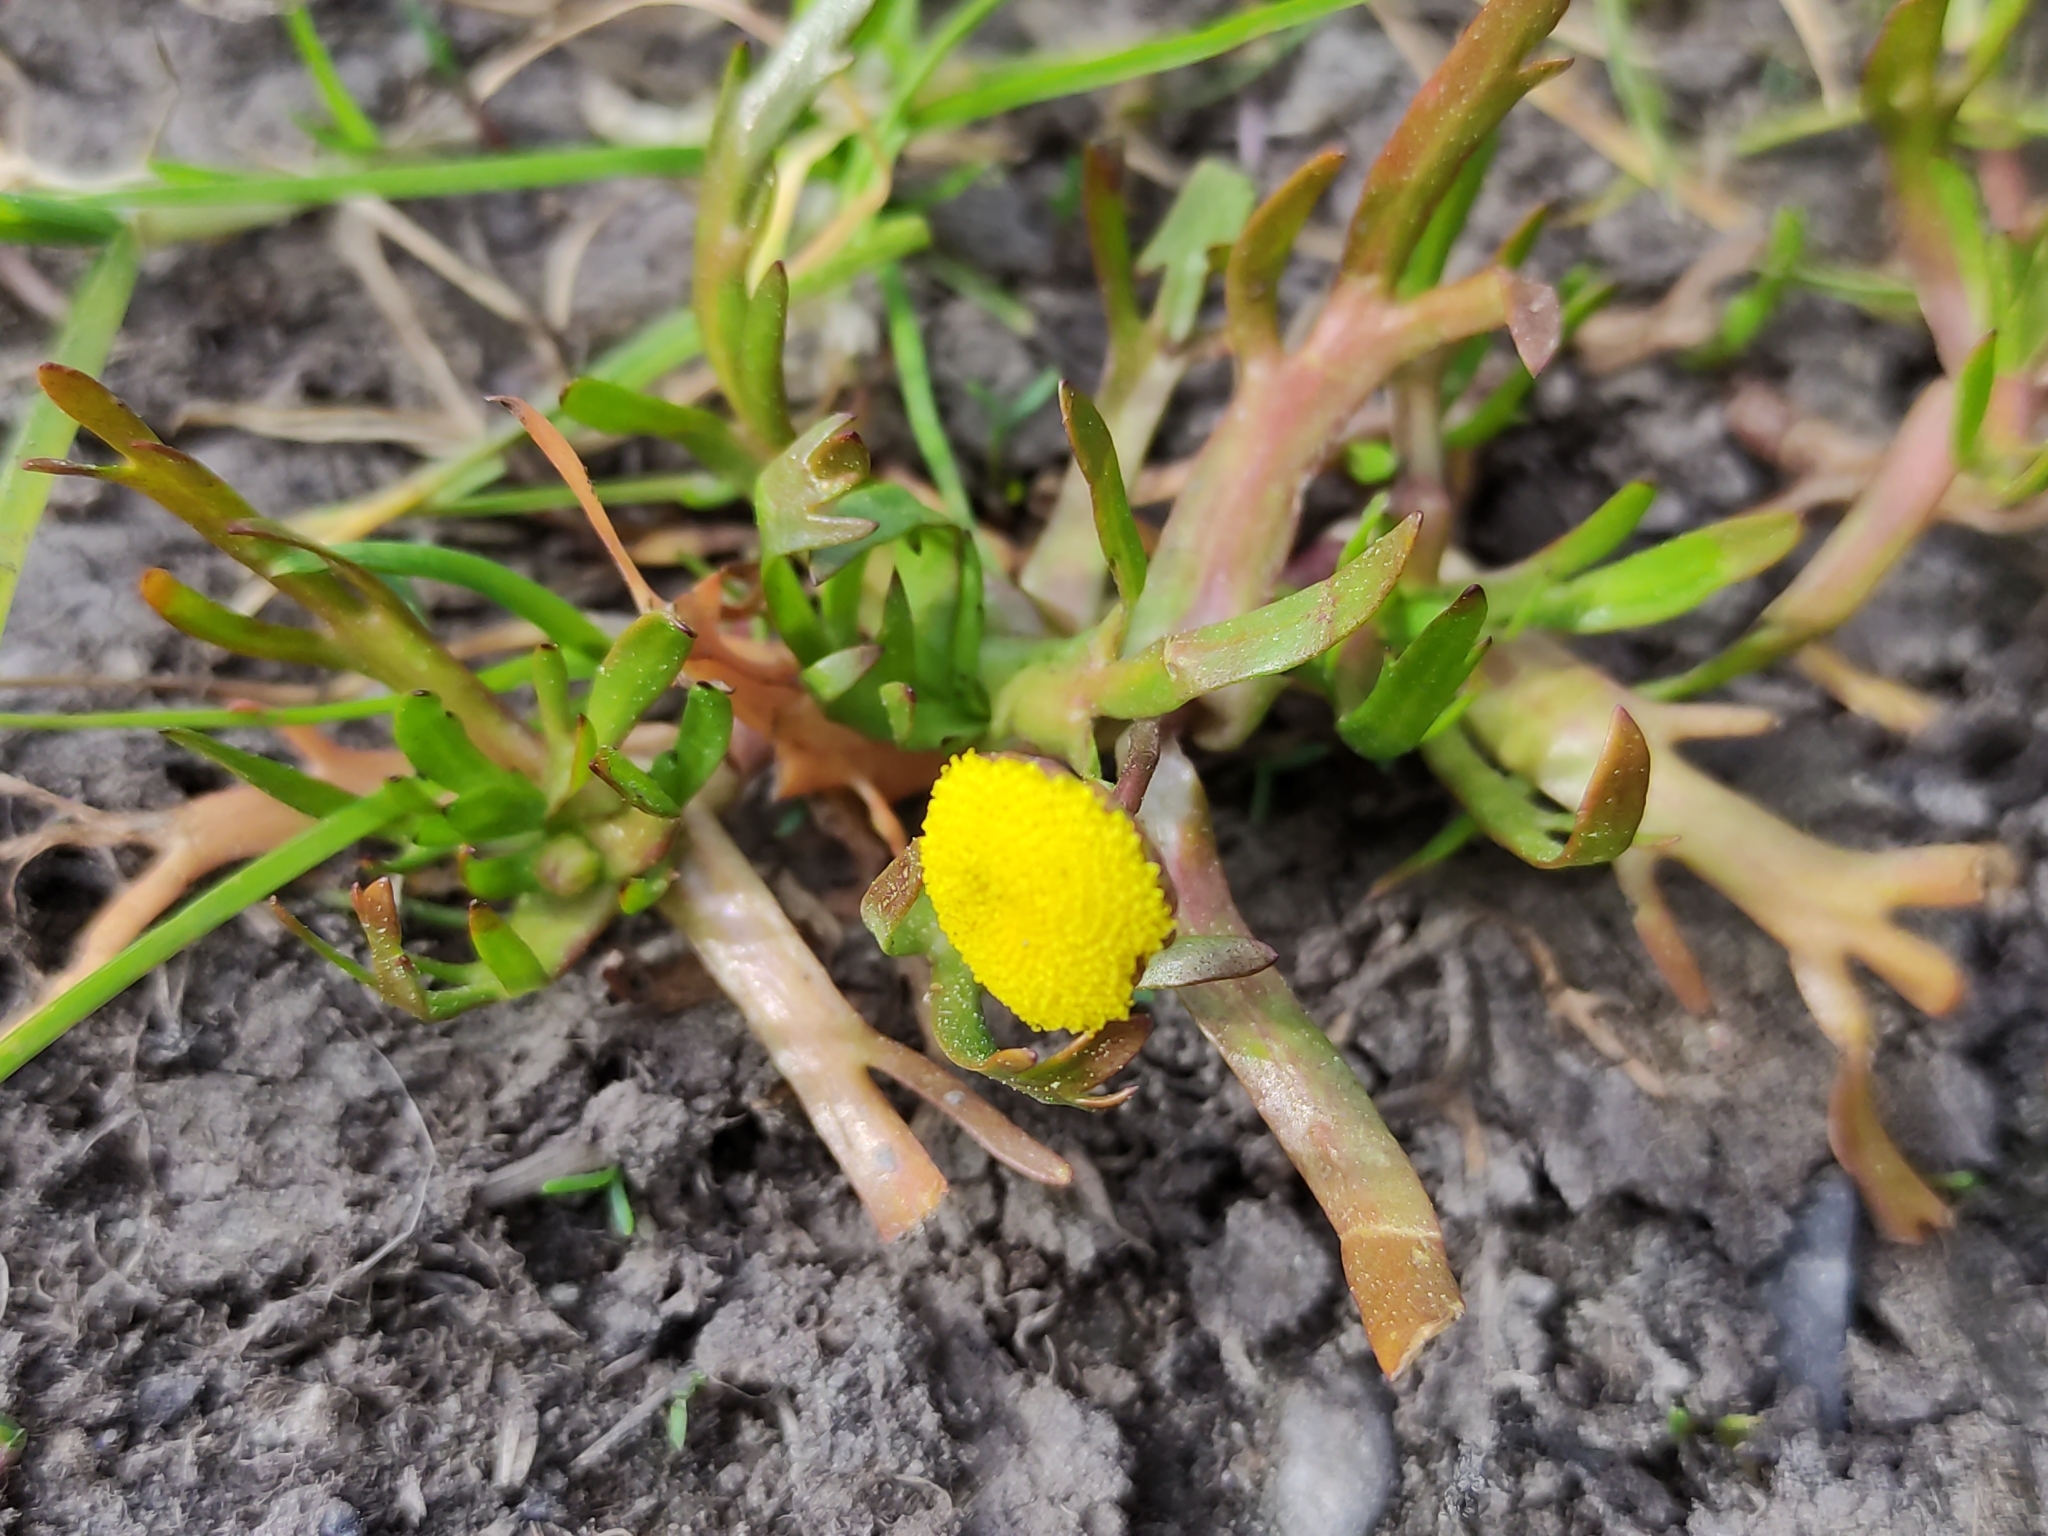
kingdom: Plantae
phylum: Tracheophyta
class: Magnoliopsida
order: Asterales
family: Asteraceae
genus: Cotula
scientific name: Cotula coronopifolia
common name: Buttonweed
